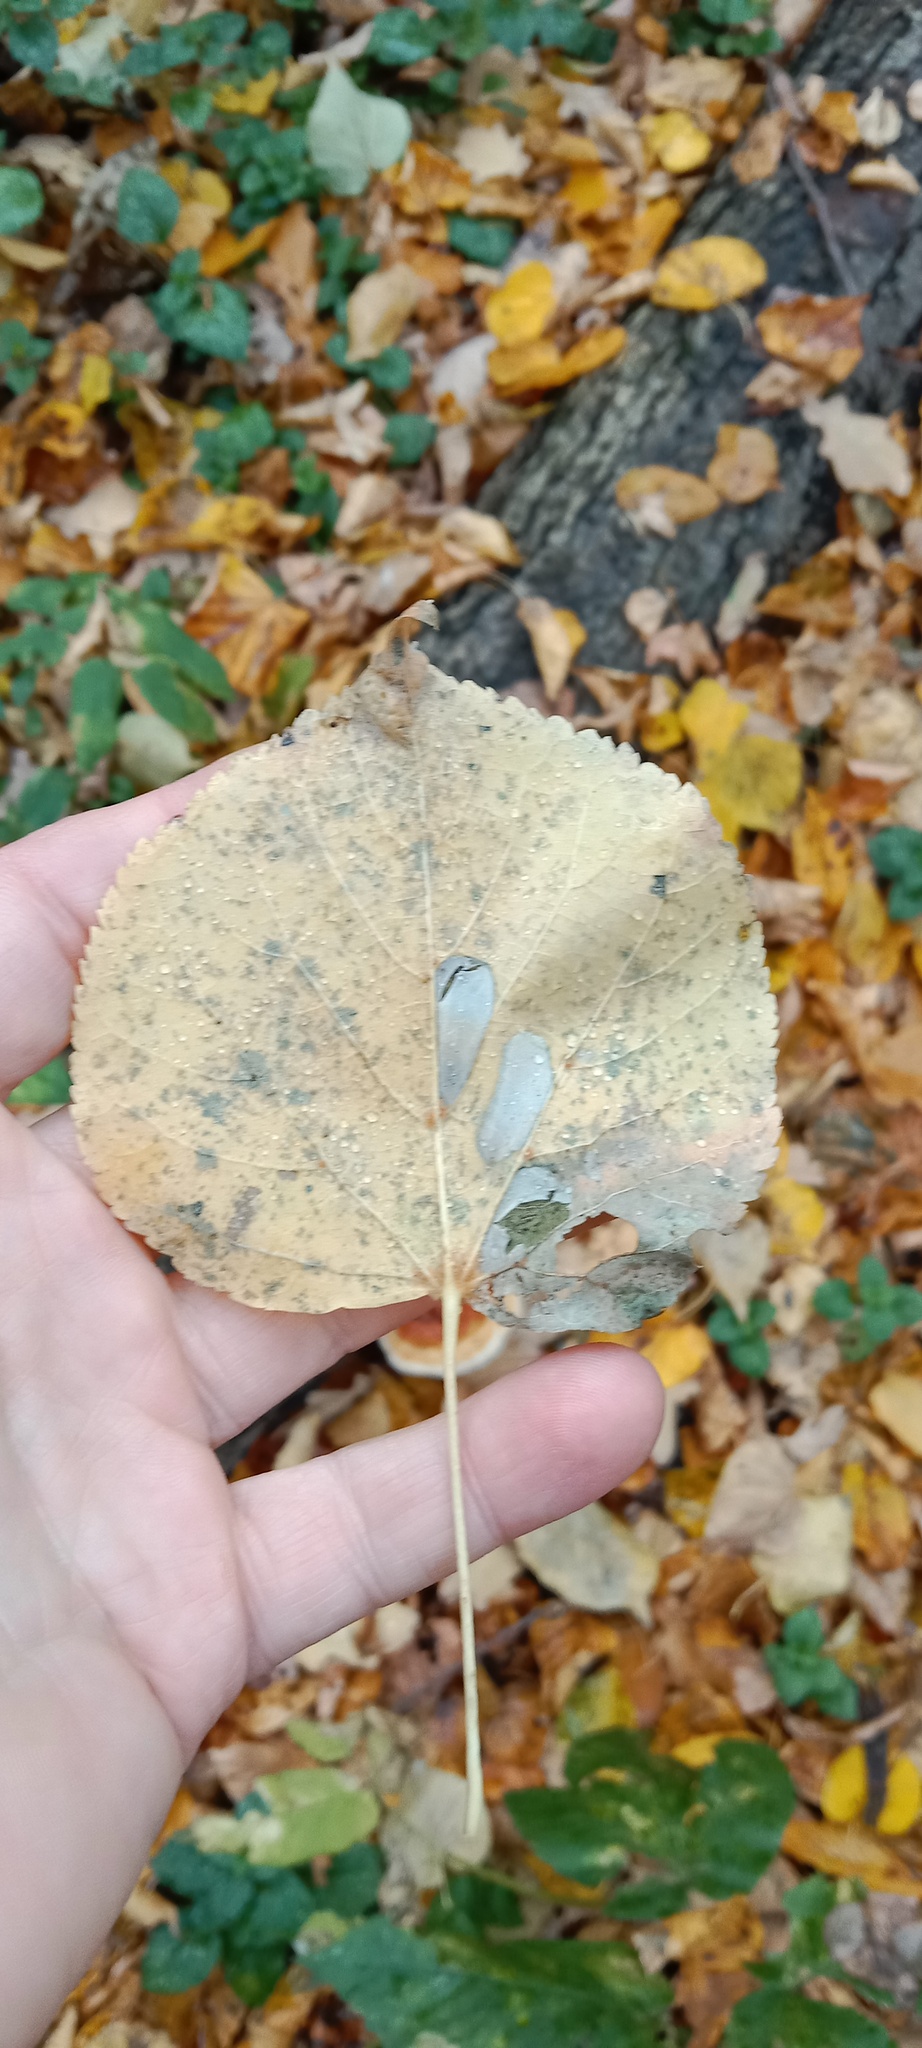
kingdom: Animalia
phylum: Arthropoda
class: Insecta
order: Lepidoptera
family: Gracillariidae
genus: Phyllonorycter
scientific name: Phyllonorycter issikii
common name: Linden midget
